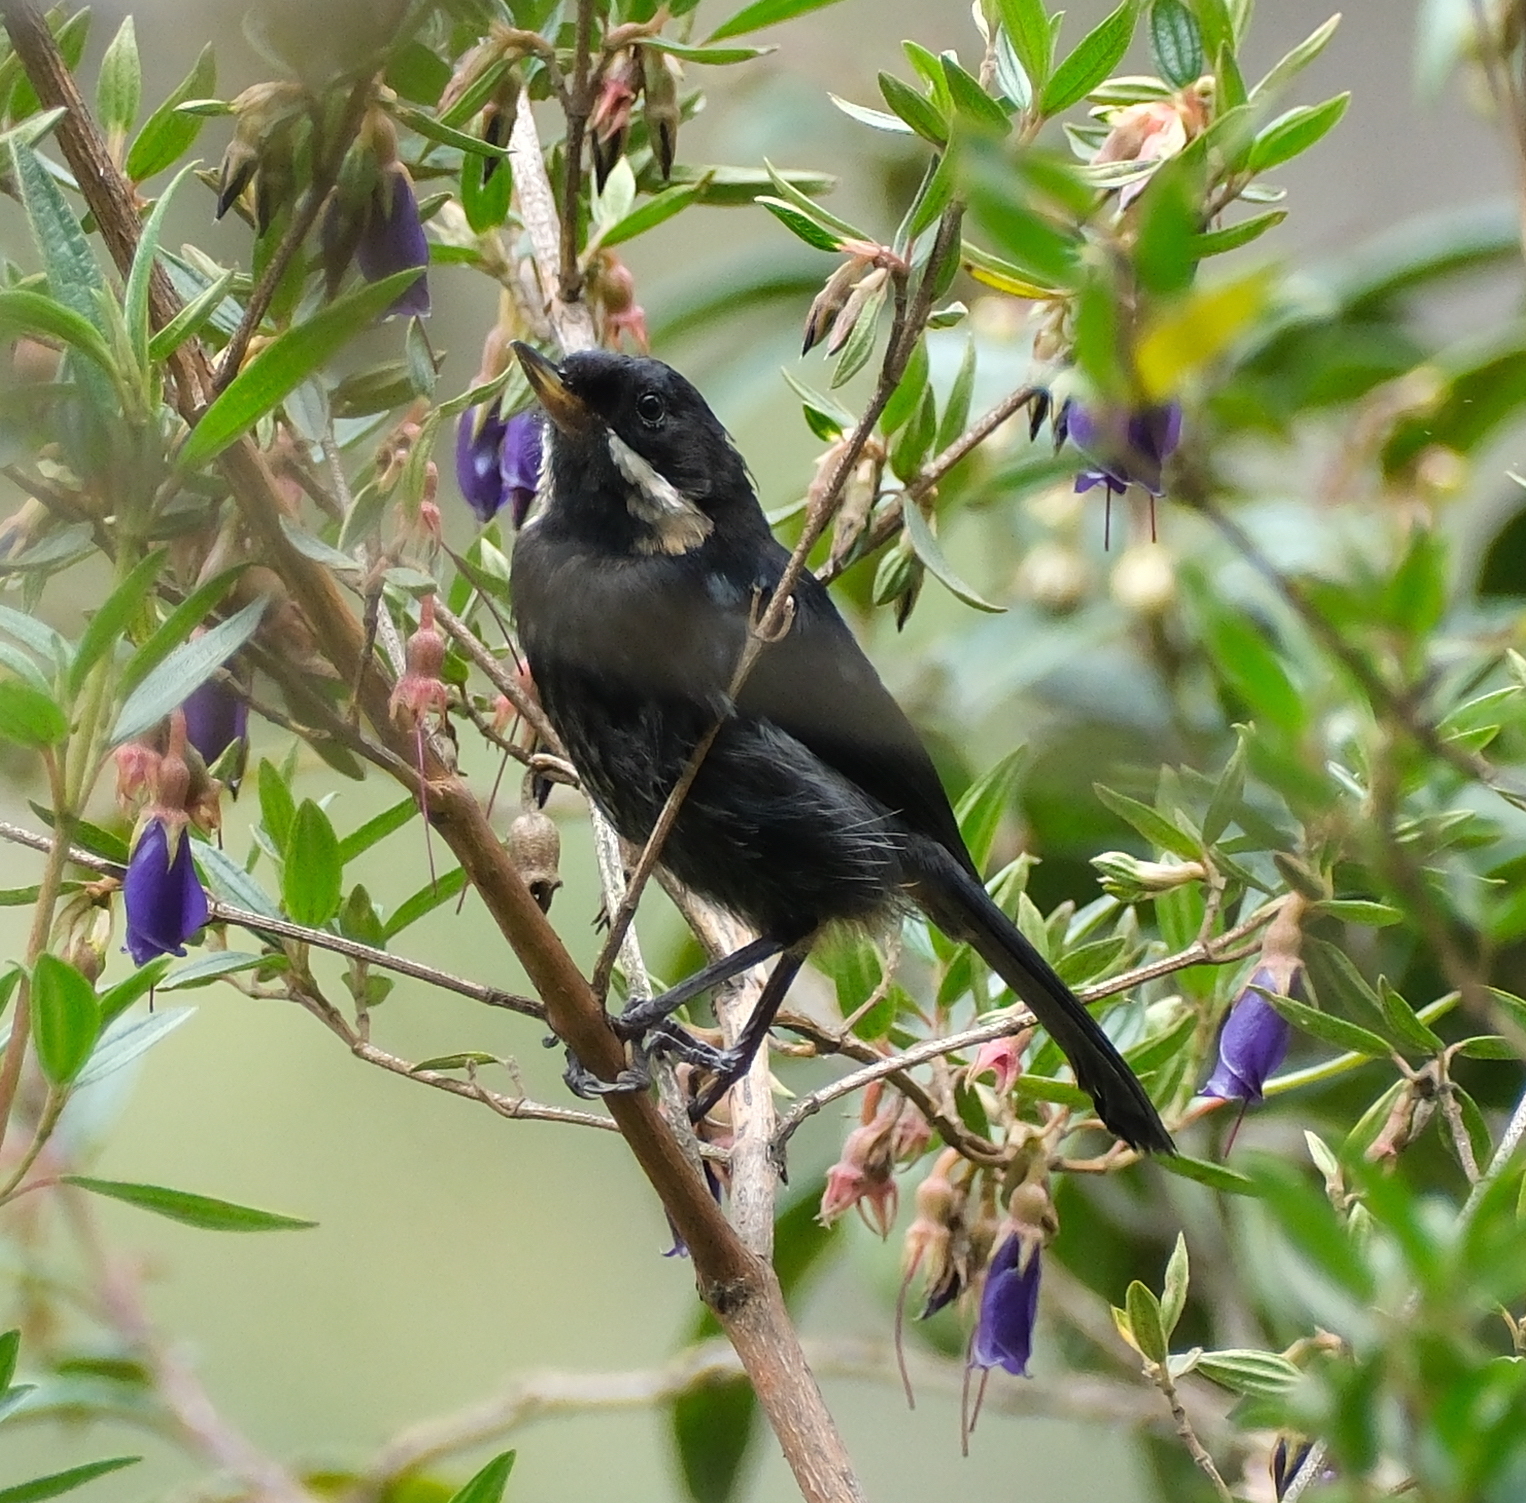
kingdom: Animalia
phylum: Chordata
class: Aves
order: Passeriformes
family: Thraupidae
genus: Diglossa
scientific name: Diglossa mystacalis
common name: Moustached flowerpiercer
